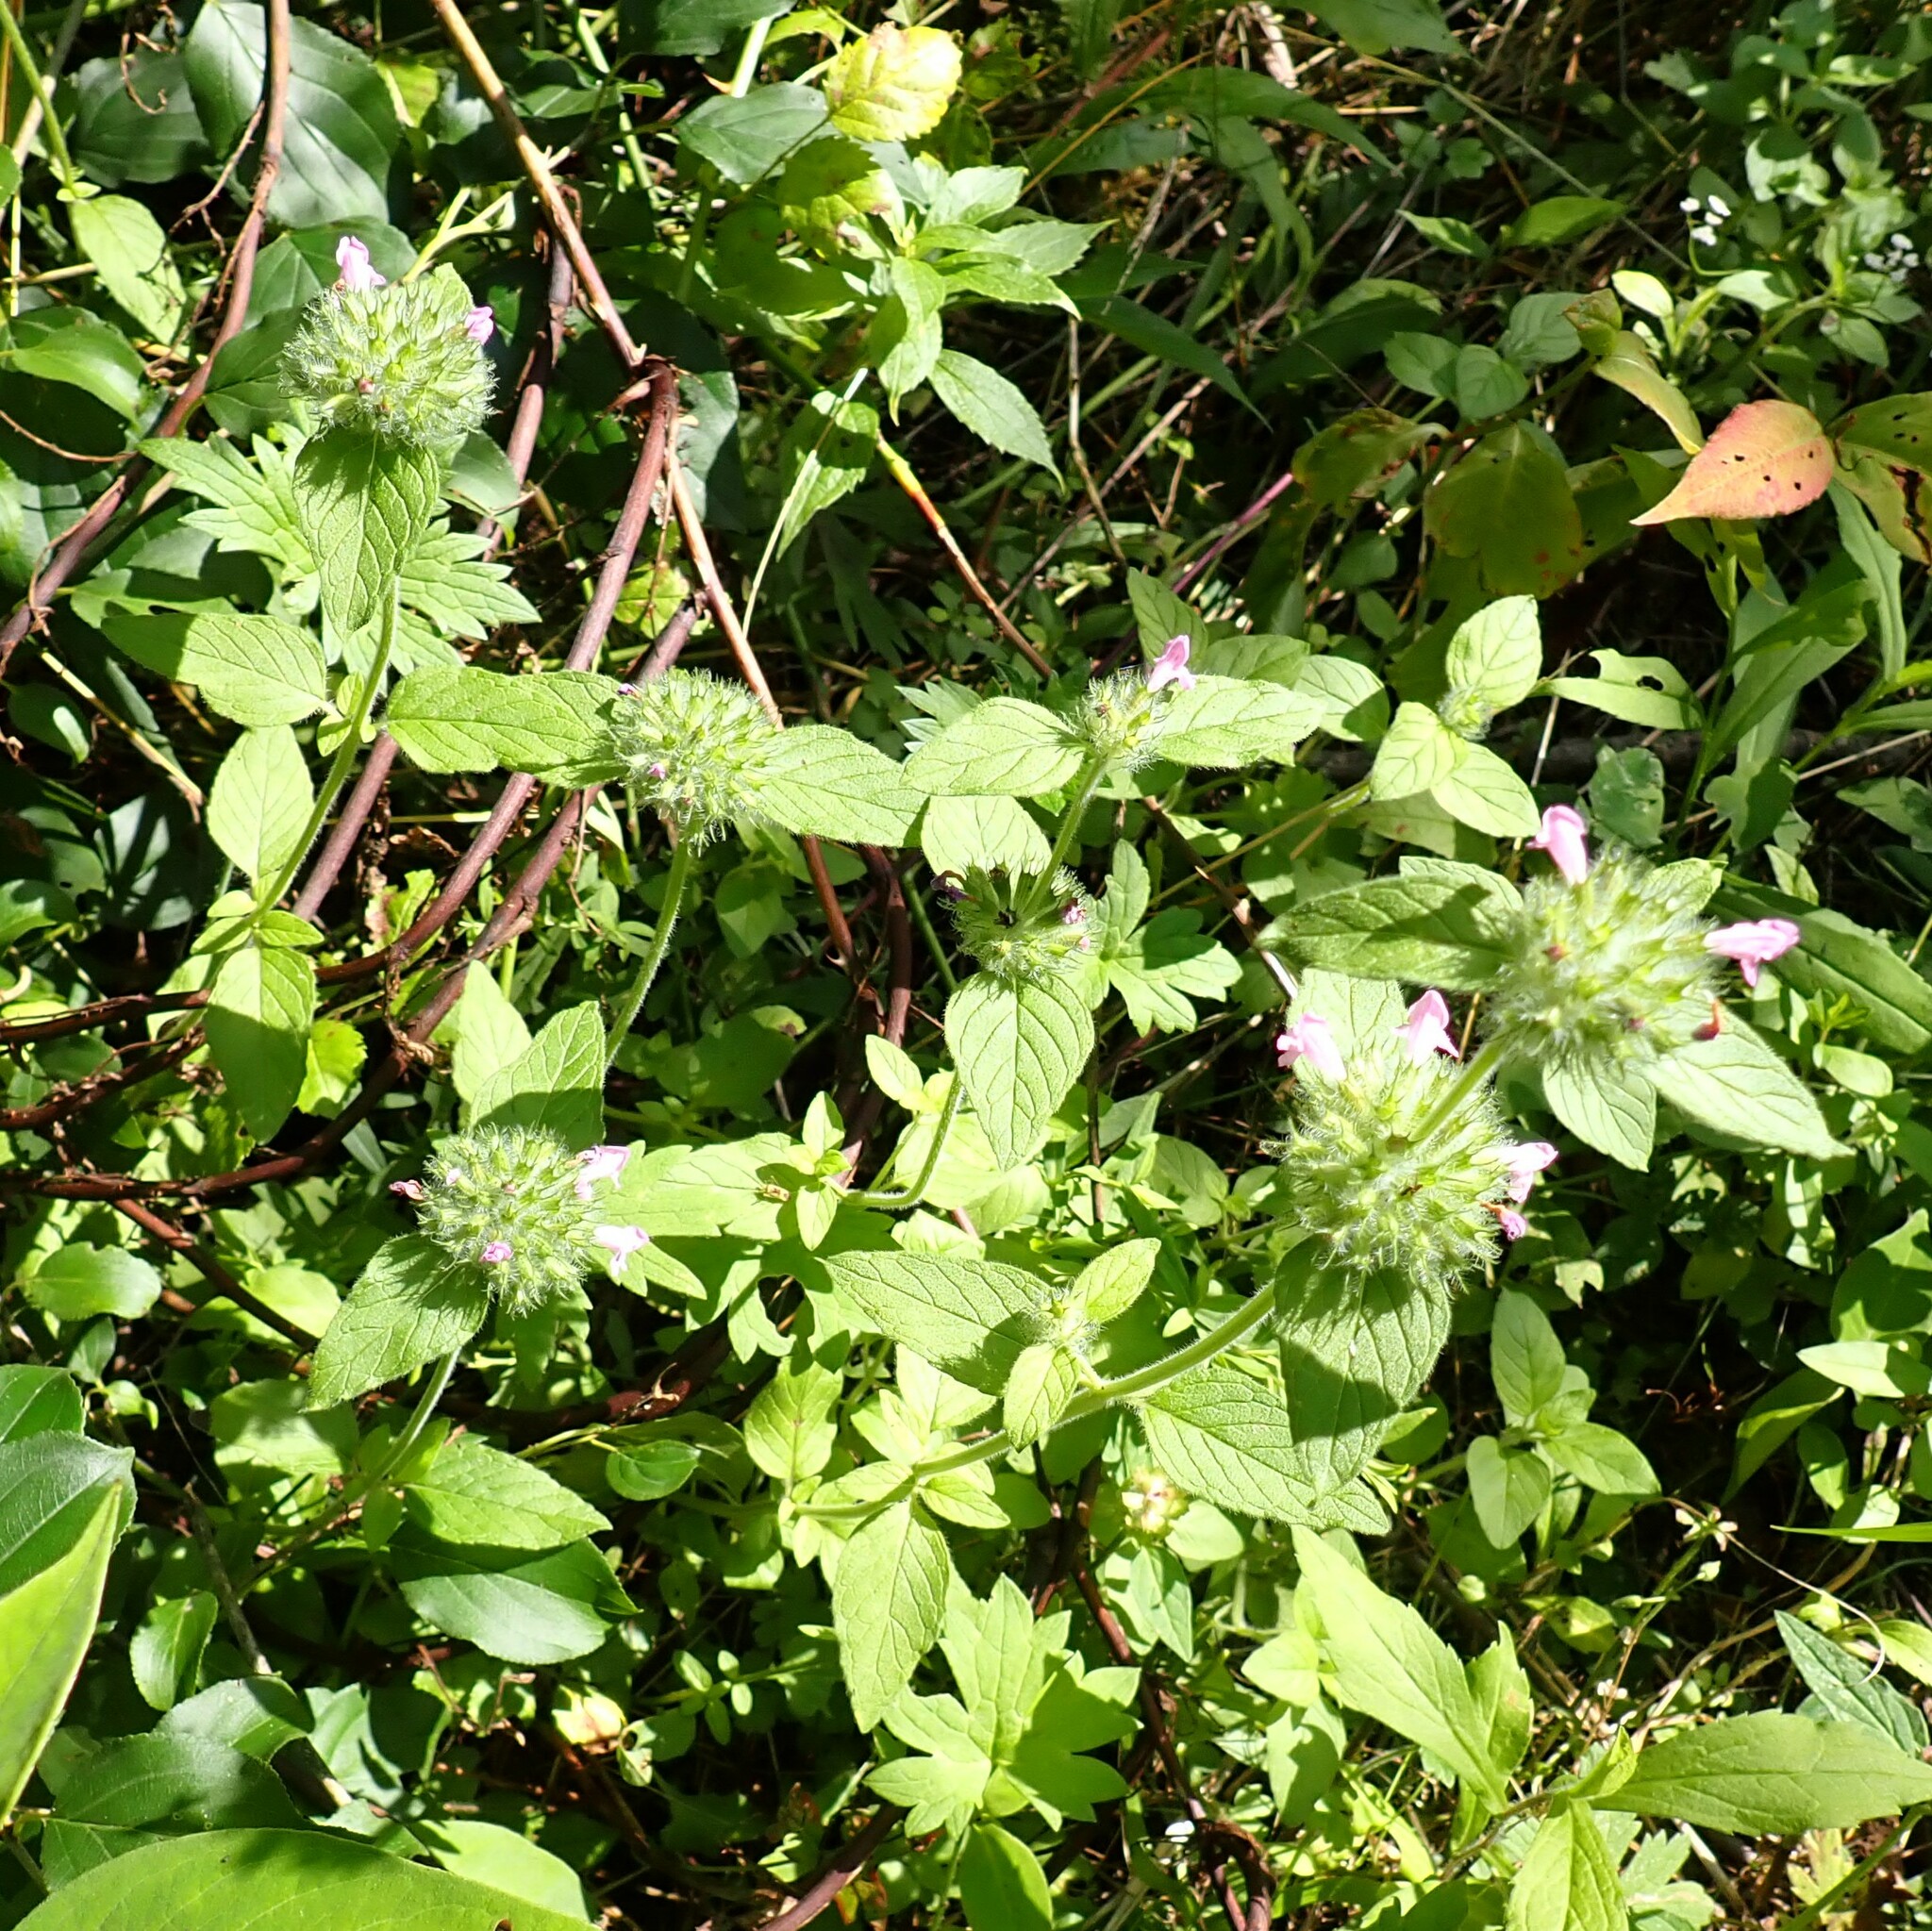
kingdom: Plantae
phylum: Tracheophyta
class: Magnoliopsida
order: Lamiales
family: Lamiaceae
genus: Clinopodium
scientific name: Clinopodium vulgare
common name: Wild basil
